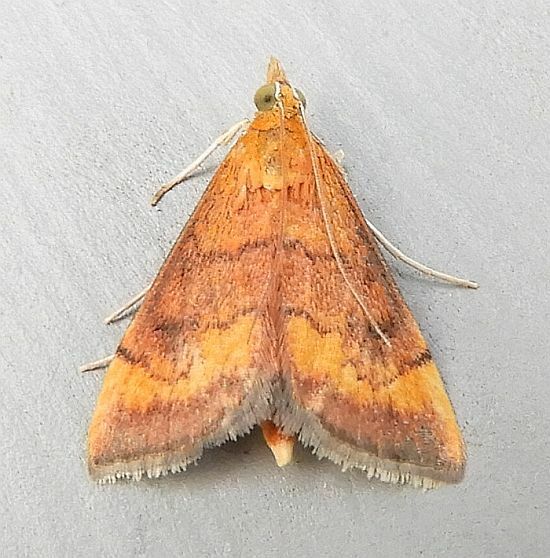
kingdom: Animalia
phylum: Arthropoda
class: Insecta
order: Lepidoptera
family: Crambidae
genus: Pyrausta
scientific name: Pyrausta rubricalis
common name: Variable reddish pyrausta
